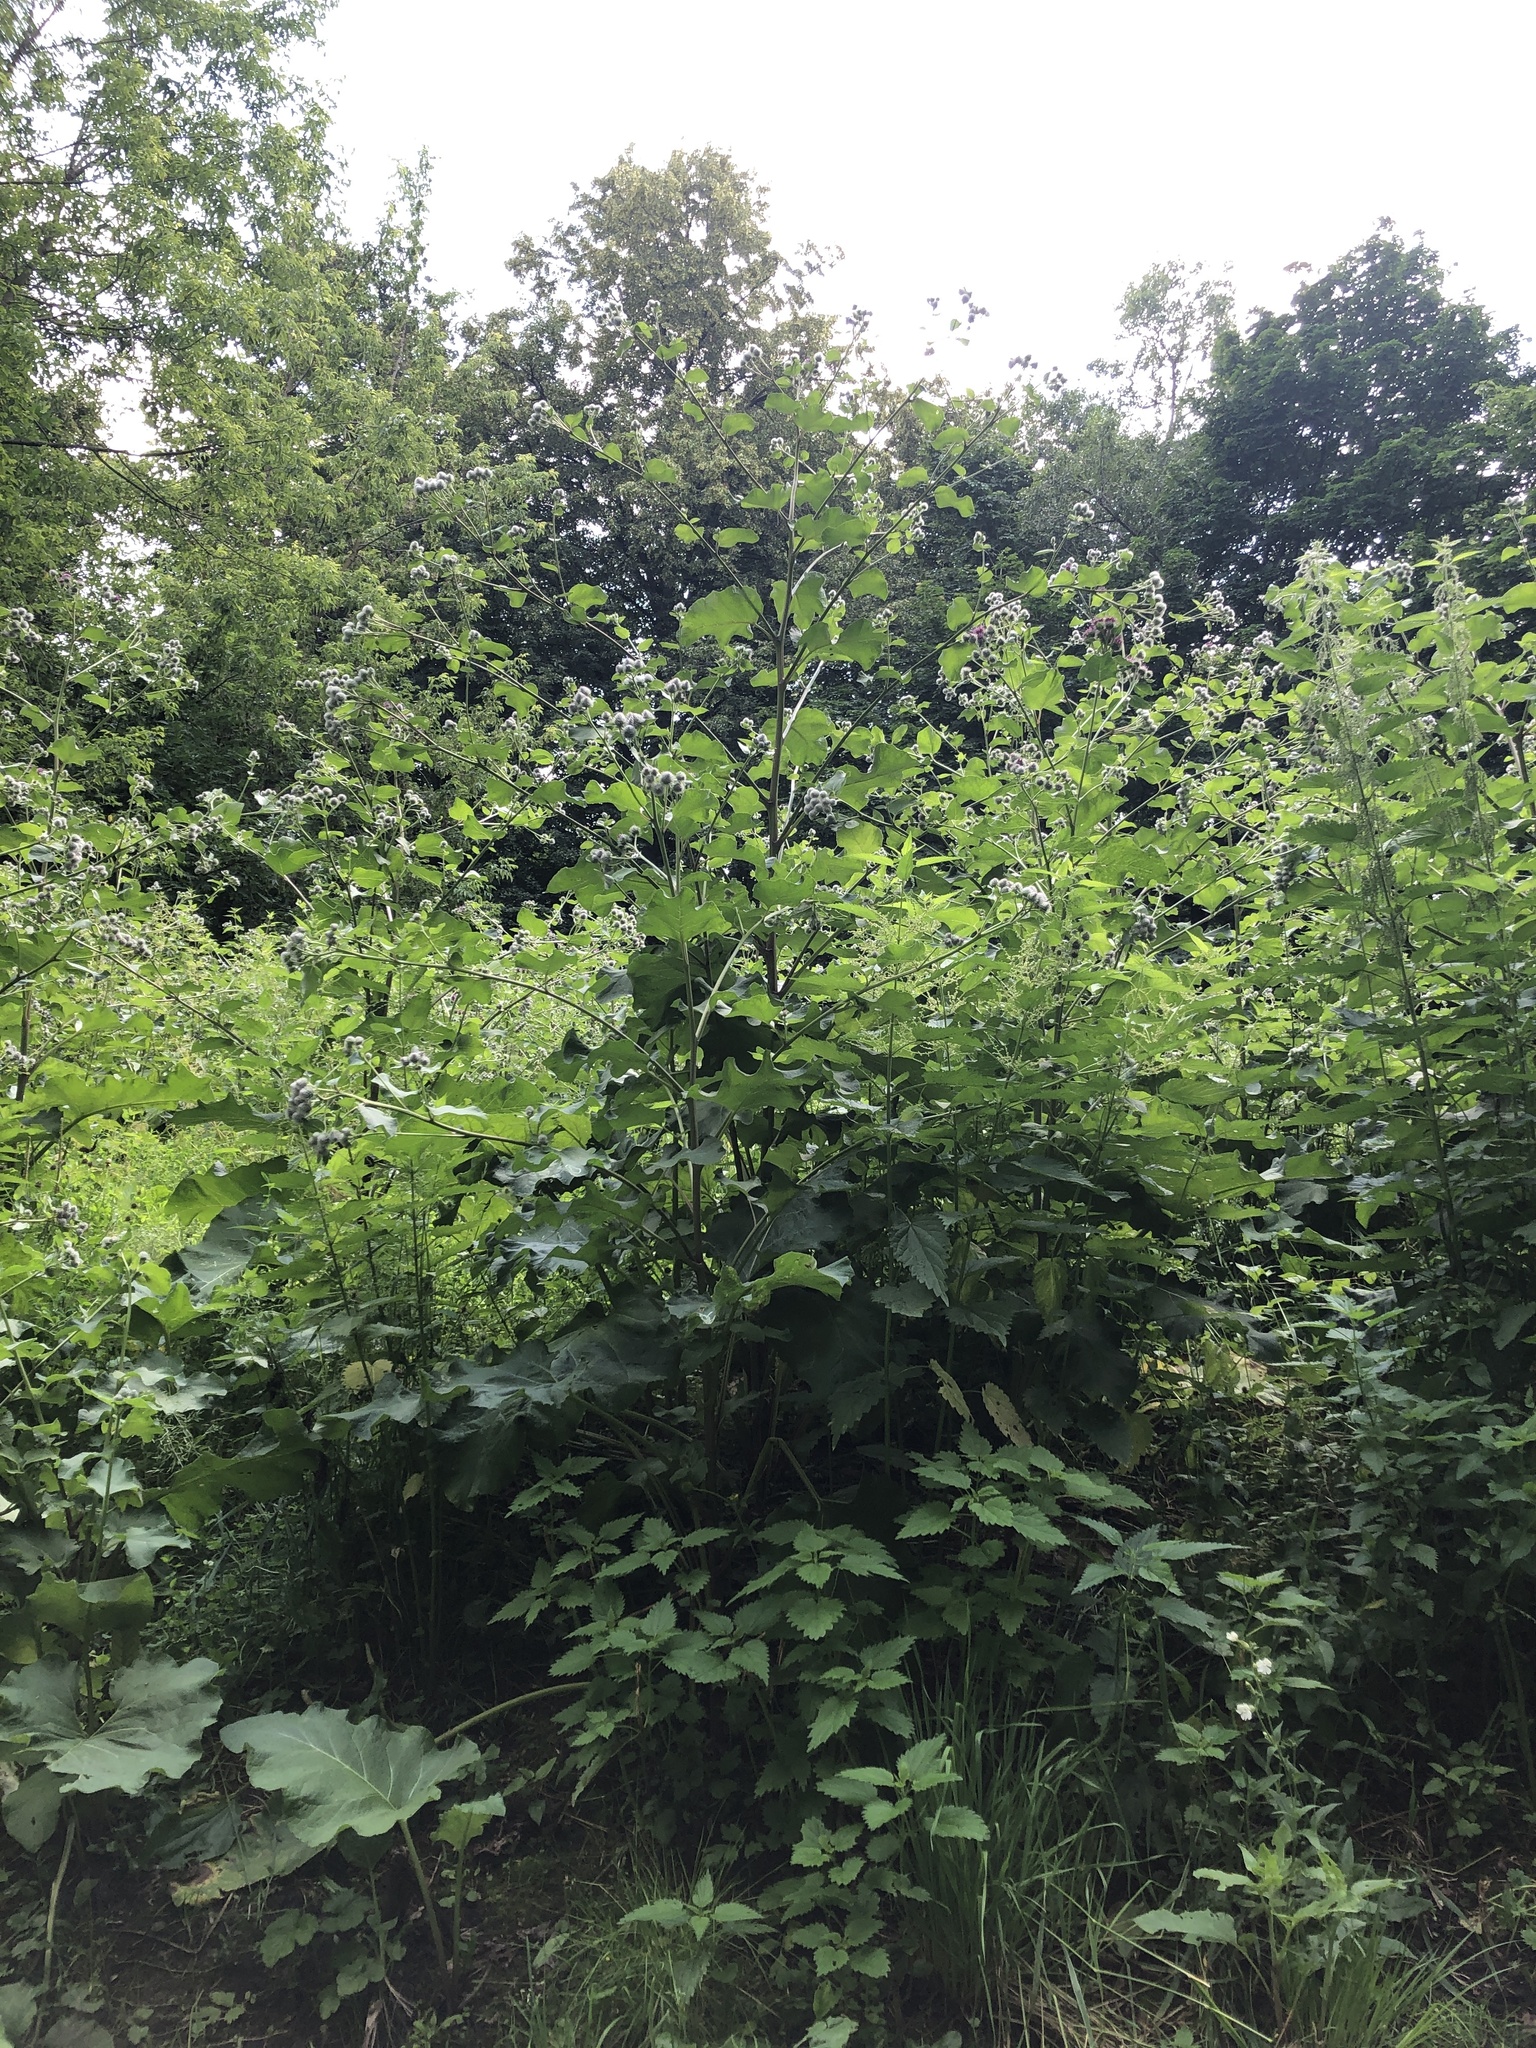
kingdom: Plantae
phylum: Tracheophyta
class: Magnoliopsida
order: Asterales
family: Asteraceae
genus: Arctium
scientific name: Arctium tomentosum
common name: Woolly burdock
